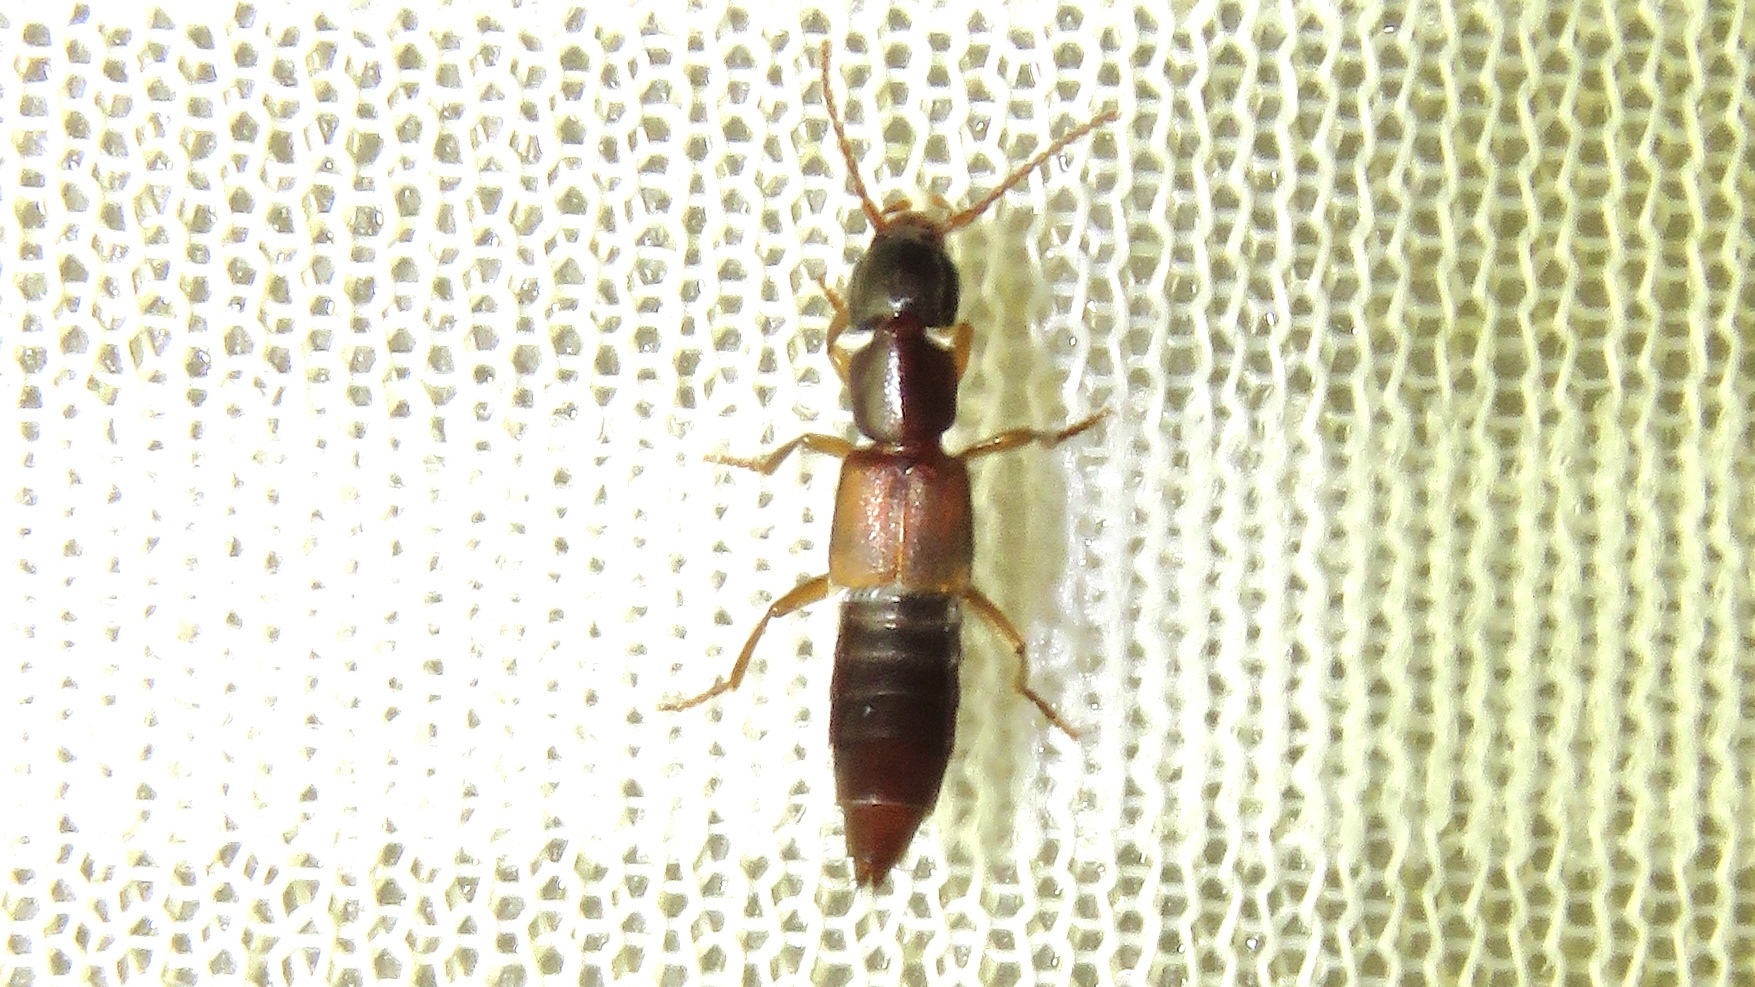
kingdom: Animalia
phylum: Arthropoda
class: Insecta
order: Coleoptera
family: Staphylinidae
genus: Achenomorphus
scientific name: Achenomorphus corticinus
